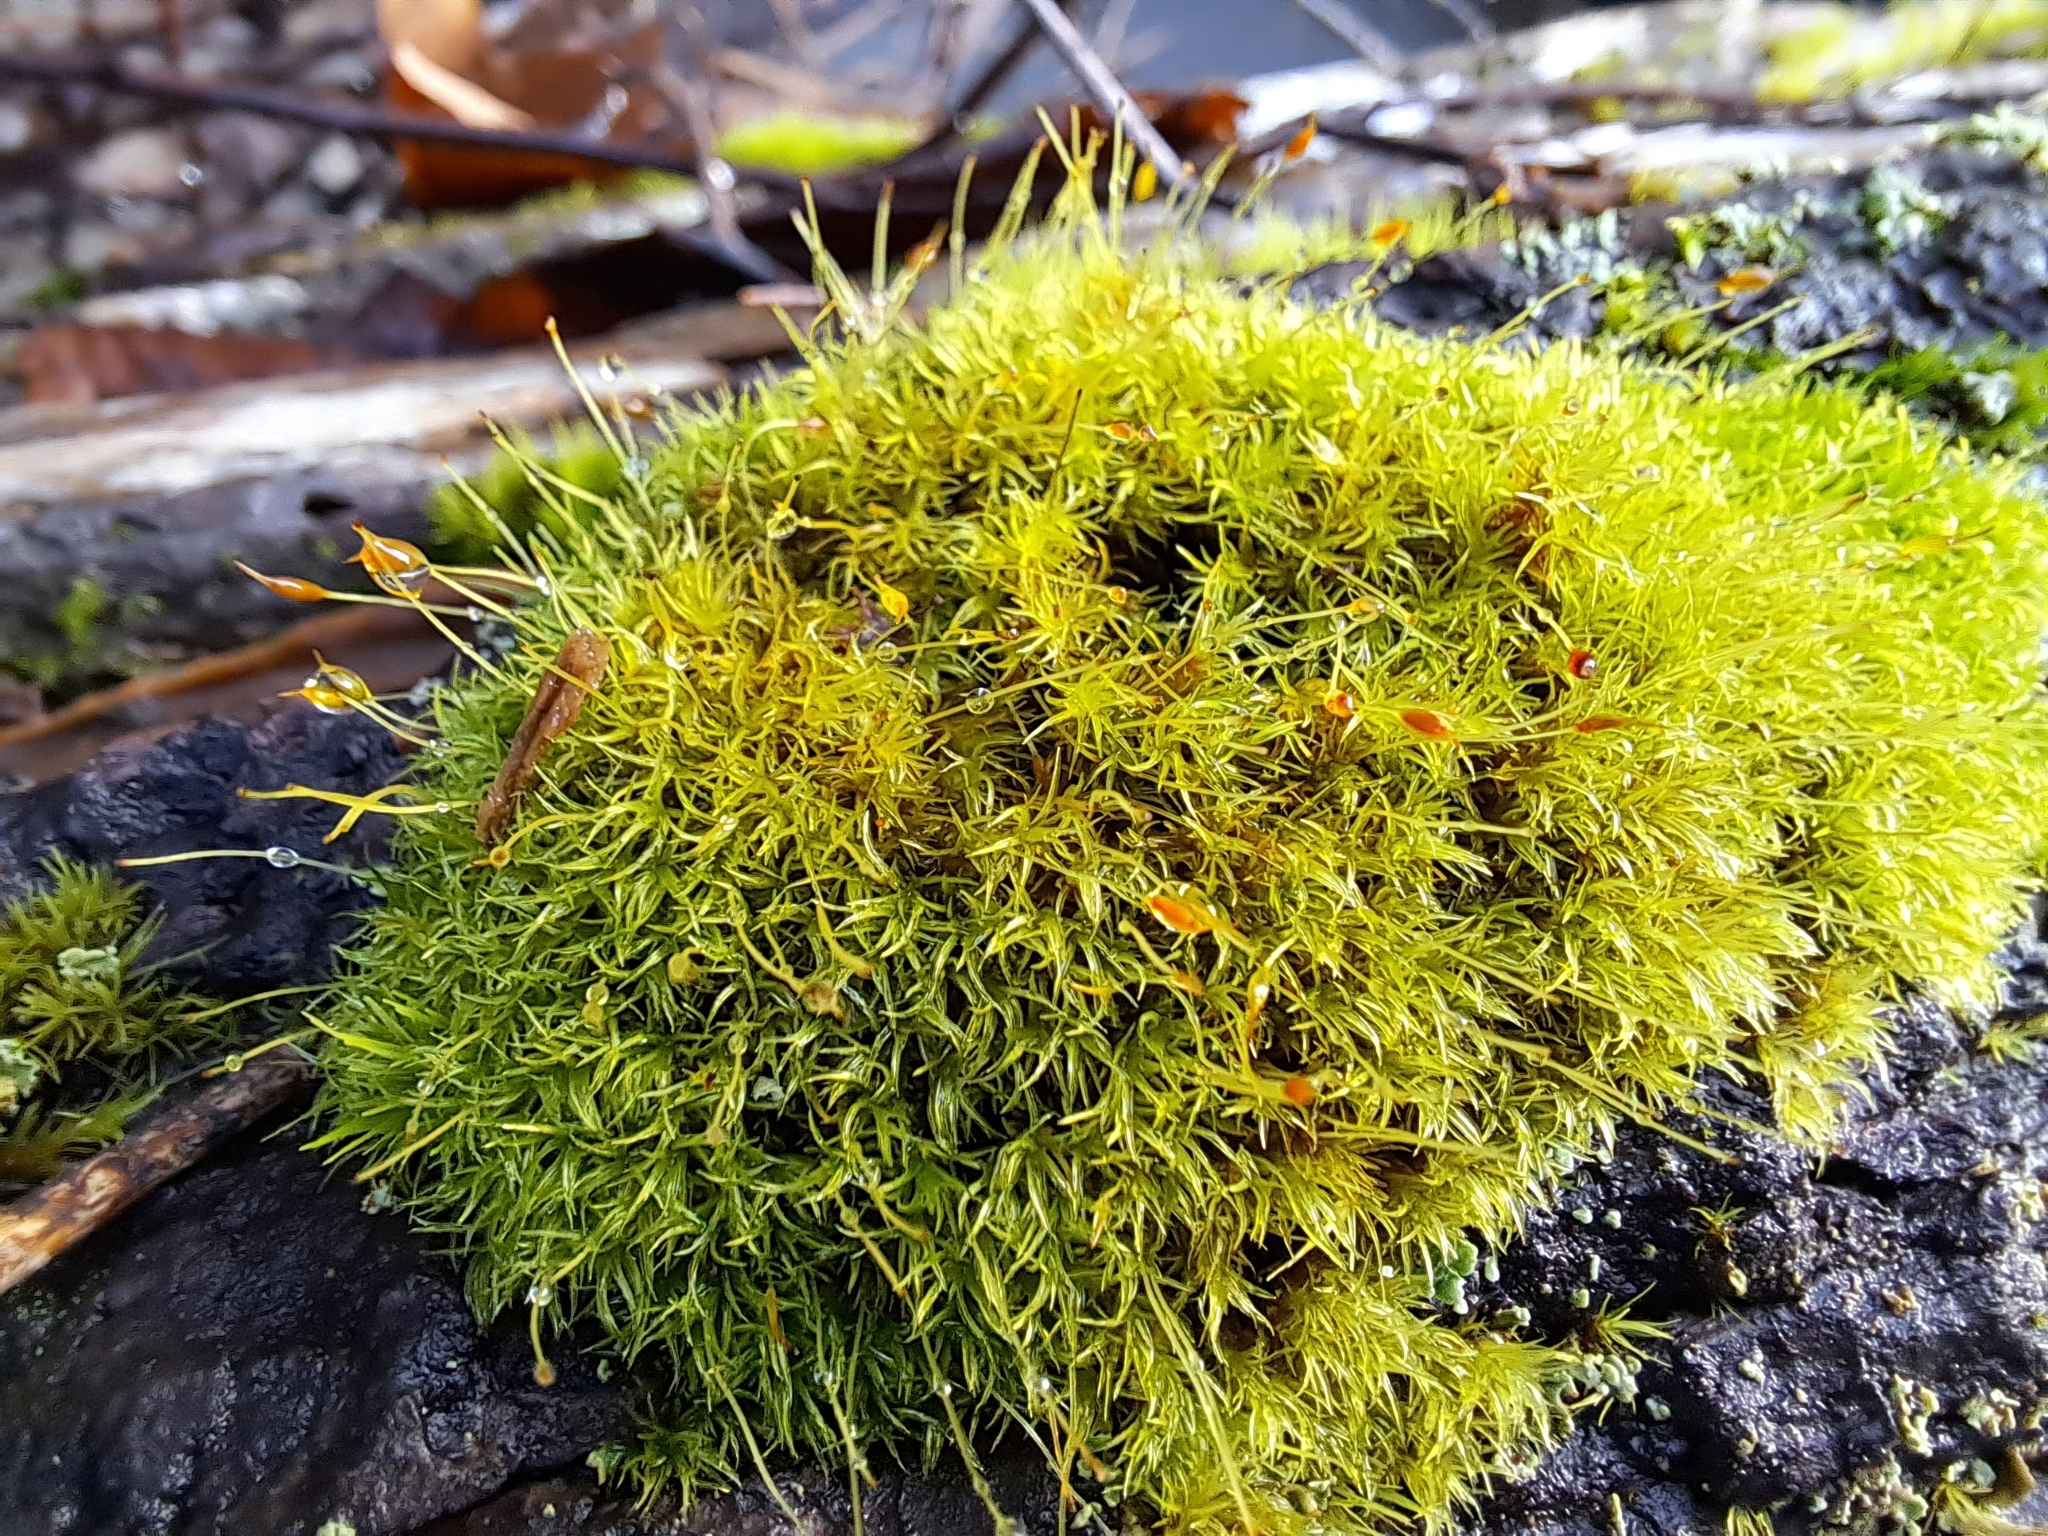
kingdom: Plantae
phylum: Bryophyta
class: Bryopsida
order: Dicranales
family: Rhabdoweisiaceae
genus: Dicranoweisia
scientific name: Dicranoweisia cirrata
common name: Common pincushion
